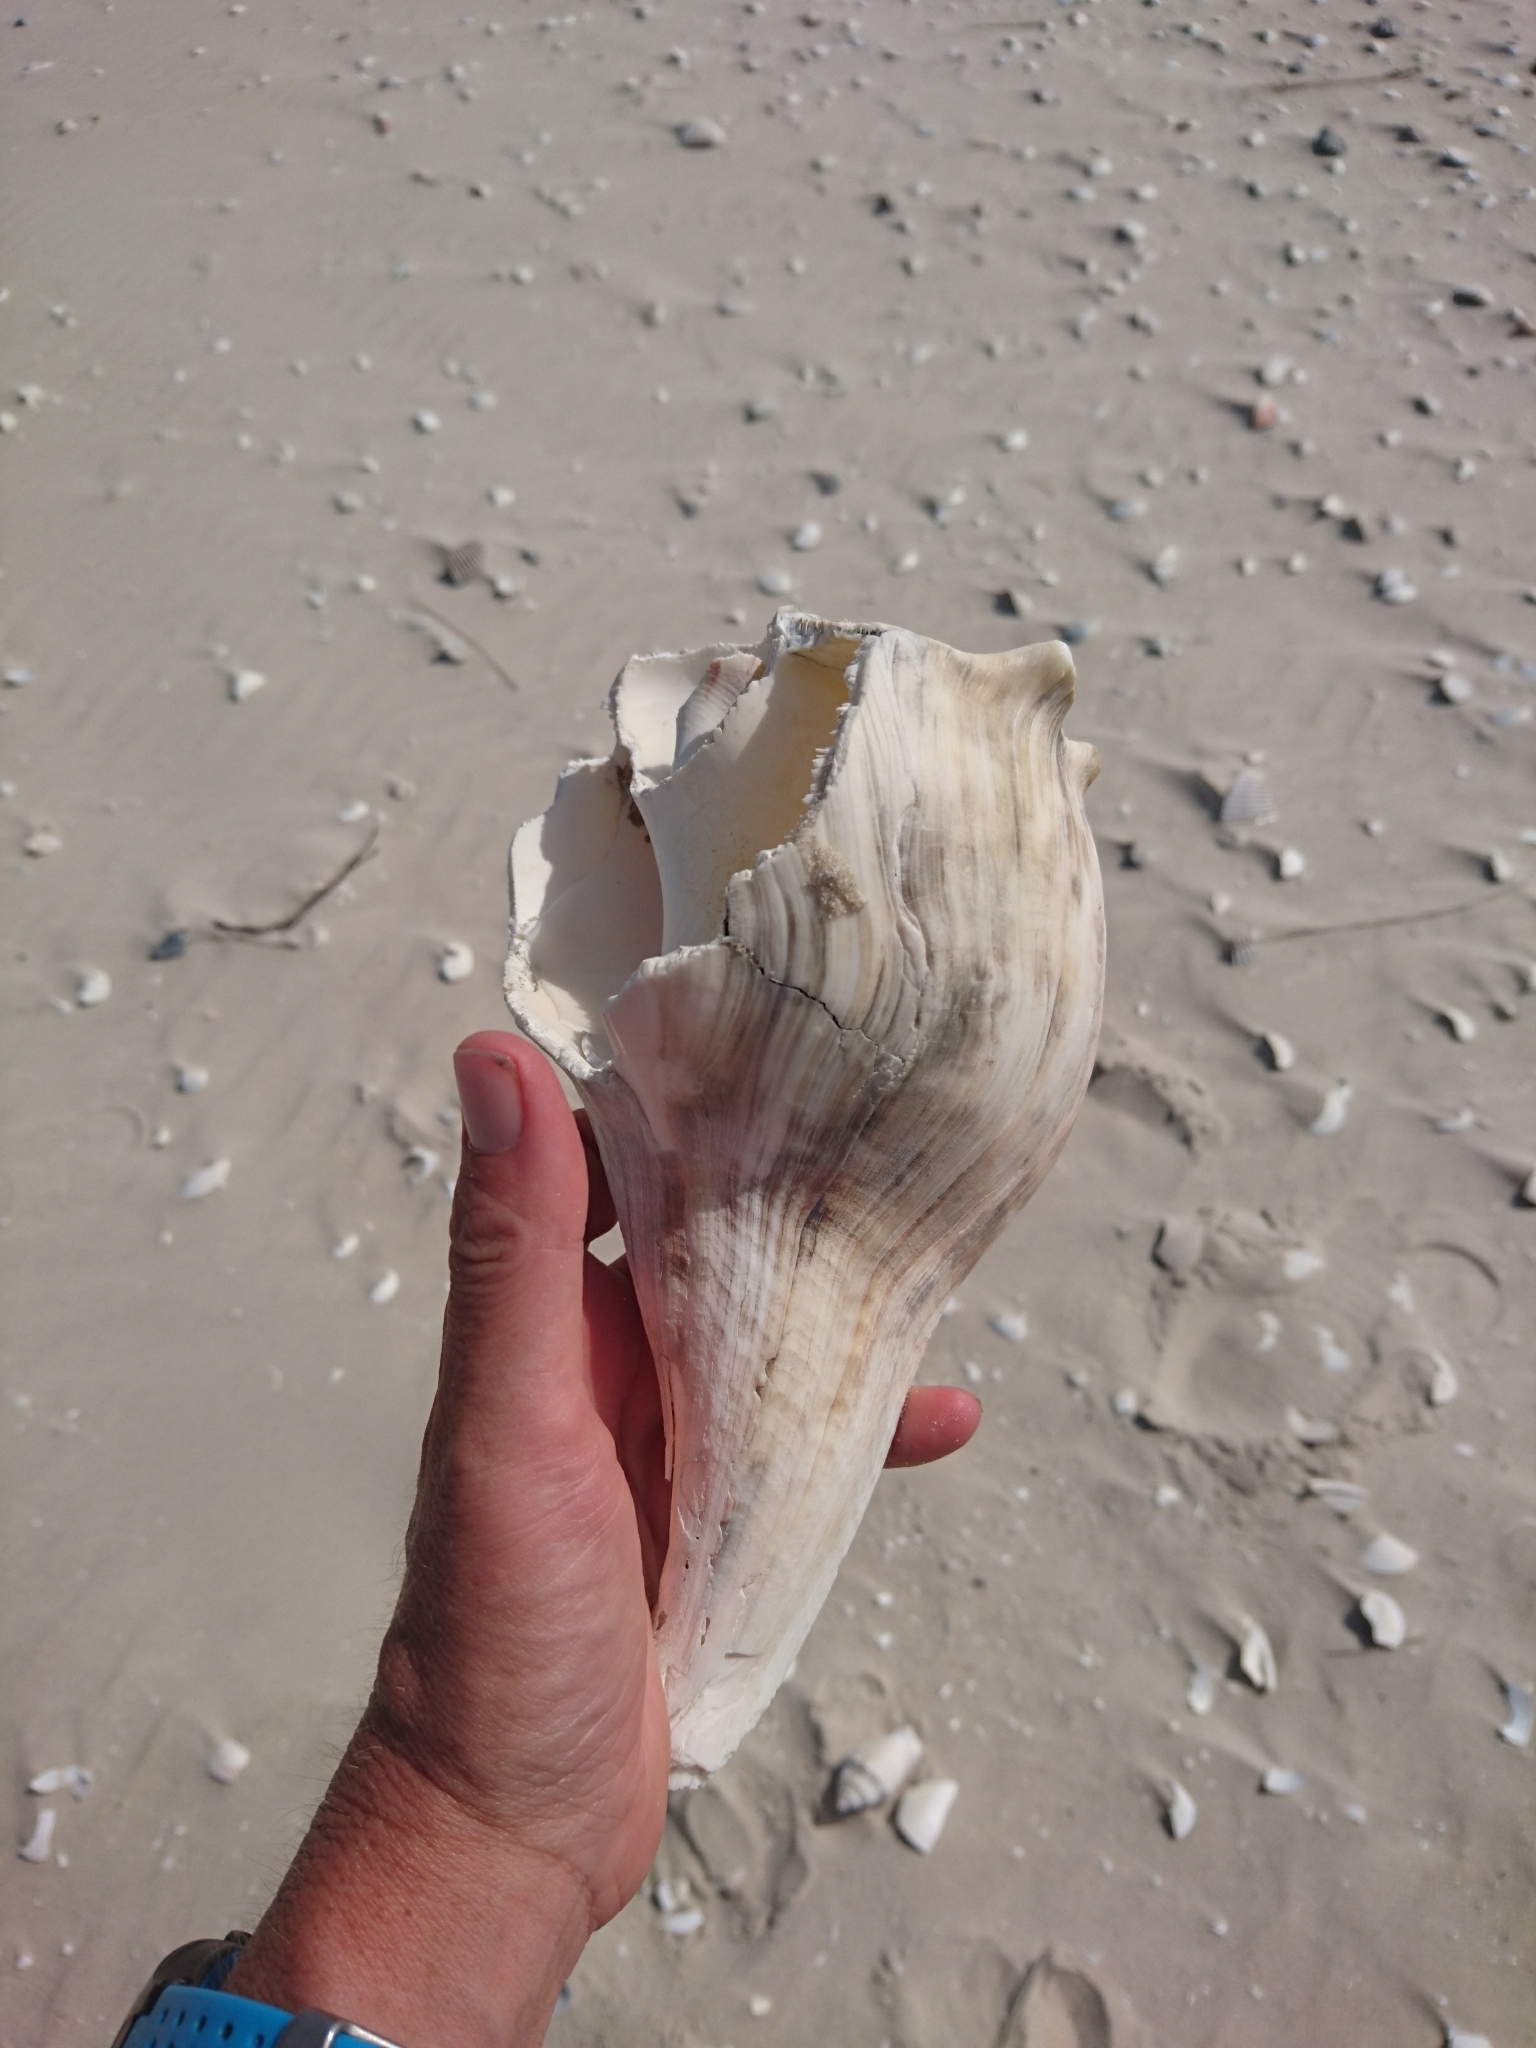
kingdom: Animalia
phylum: Mollusca
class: Gastropoda
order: Neogastropoda
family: Busyconidae
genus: Sinistrofulgur
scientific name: Sinistrofulgur sinistrum
